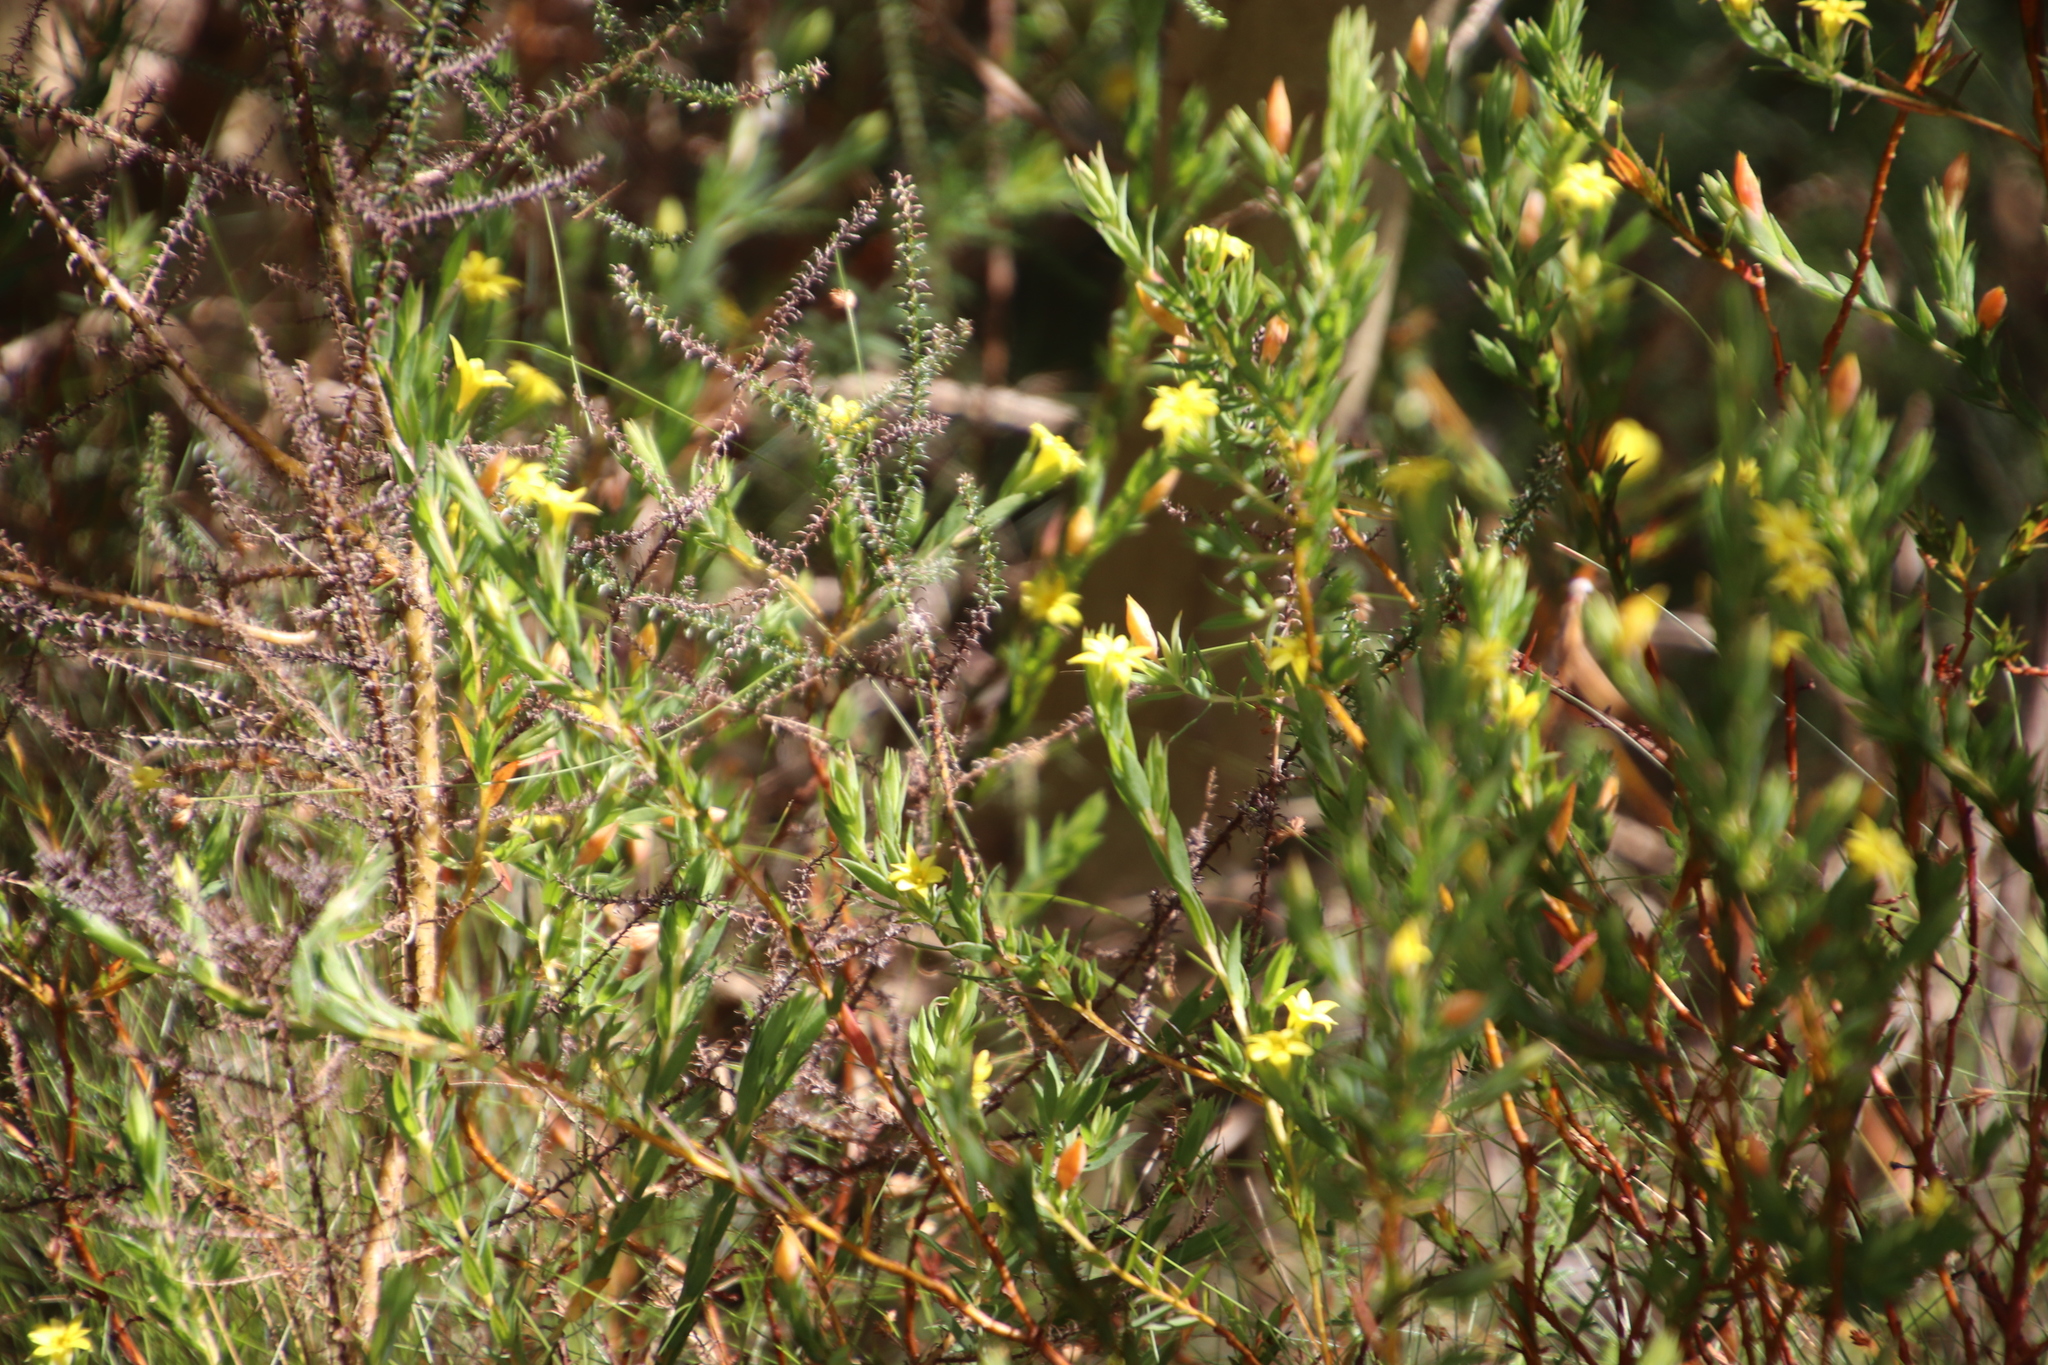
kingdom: Plantae
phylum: Tracheophyta
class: Magnoliopsida
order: Malvales
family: Thymelaeaceae
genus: Gnidia
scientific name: Gnidia juniperifolia
